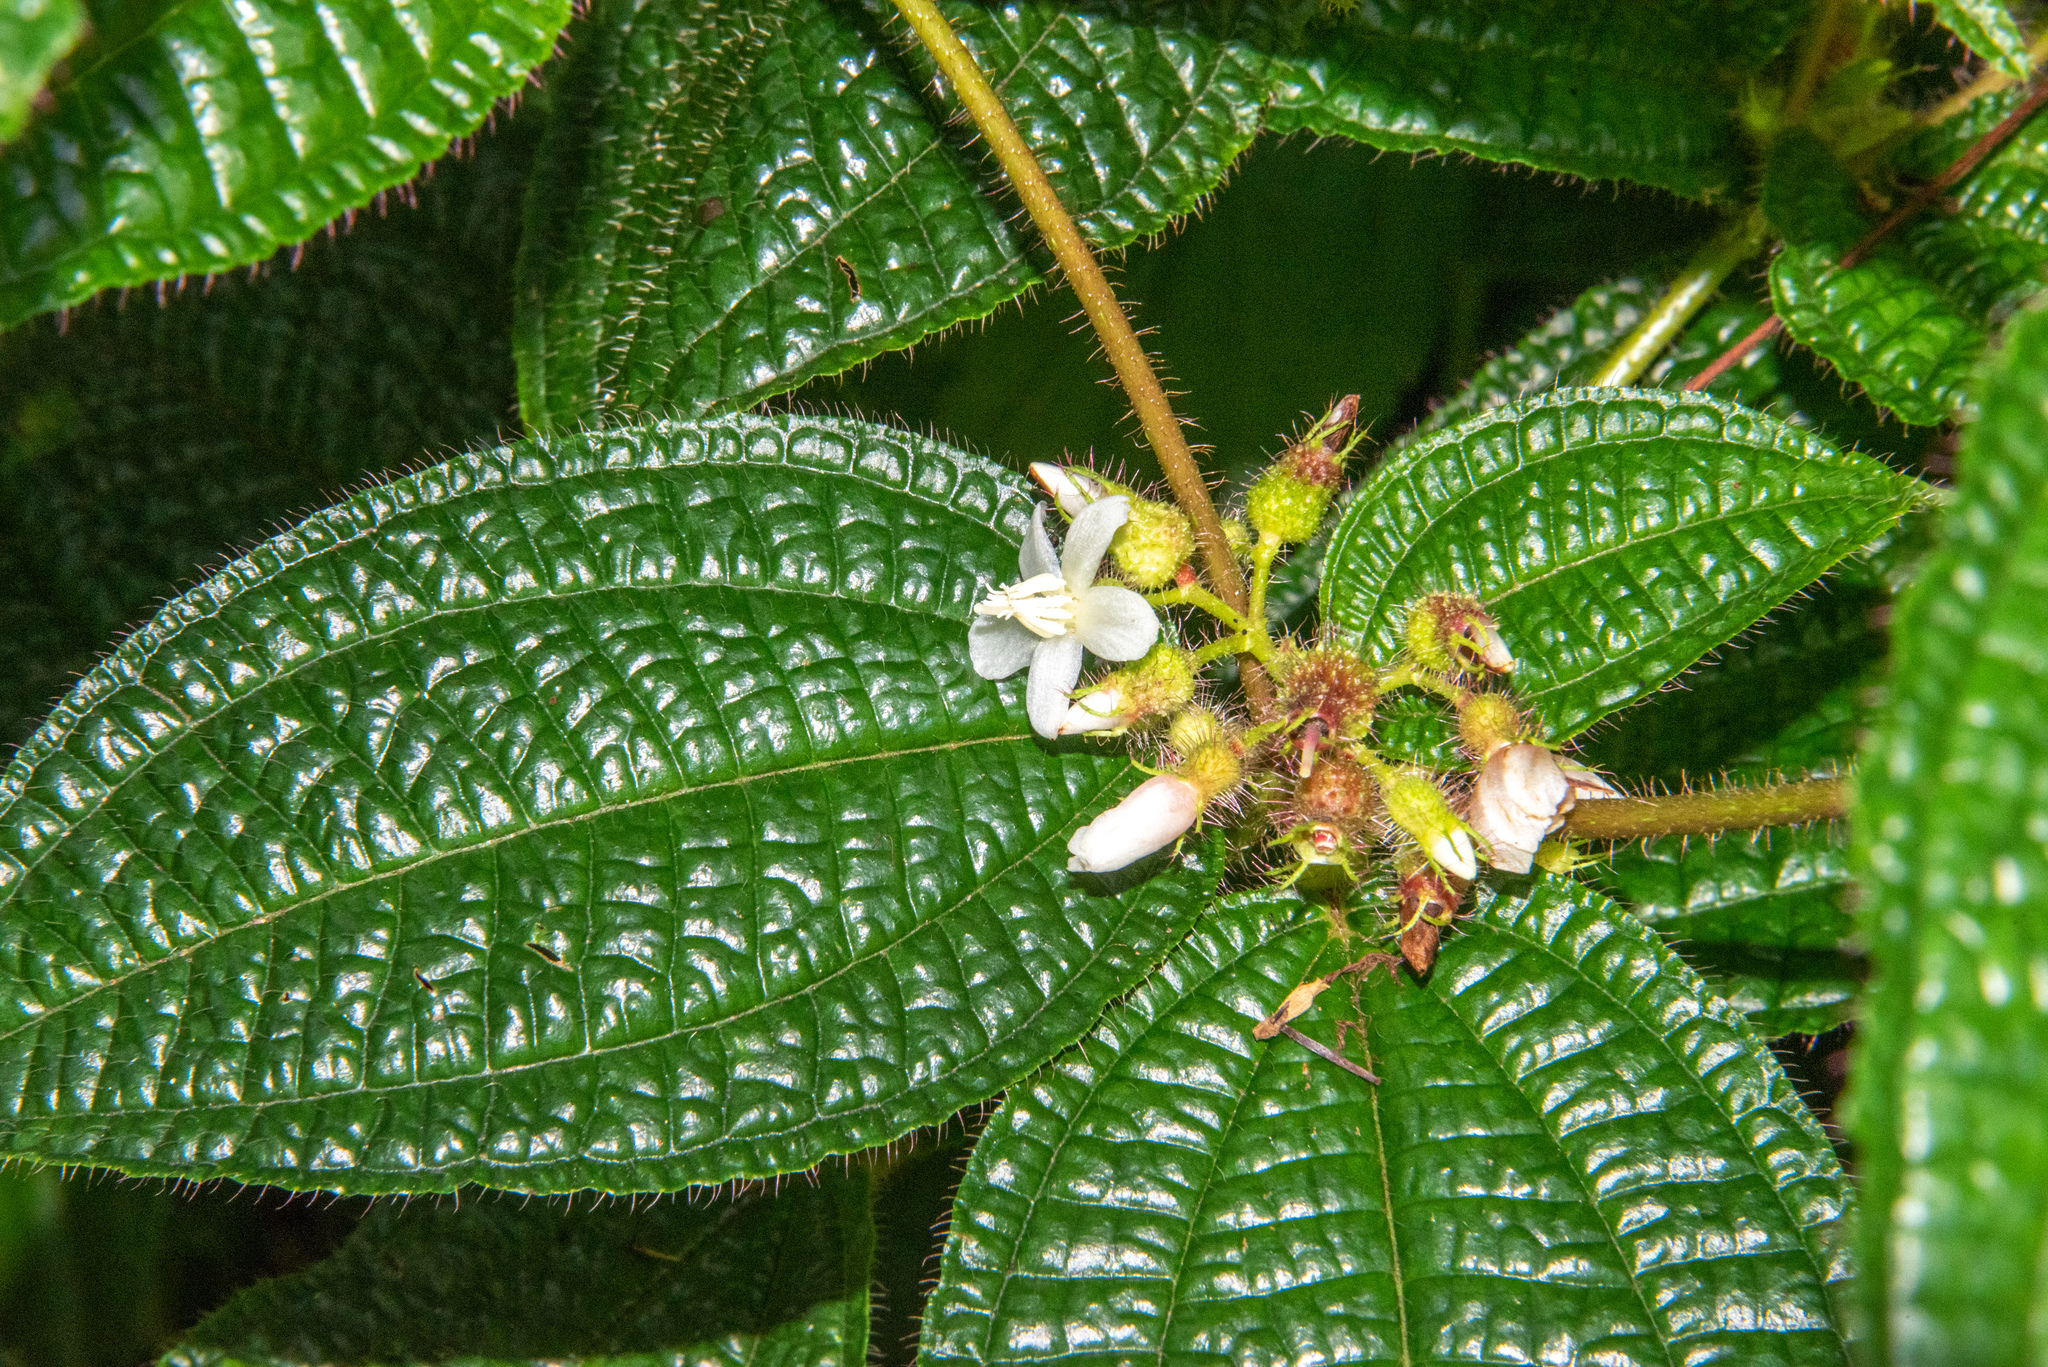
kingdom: Plantae
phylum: Tracheophyta
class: Magnoliopsida
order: Myrtales
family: Melastomataceae
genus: Miconia
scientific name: Miconia crenata
